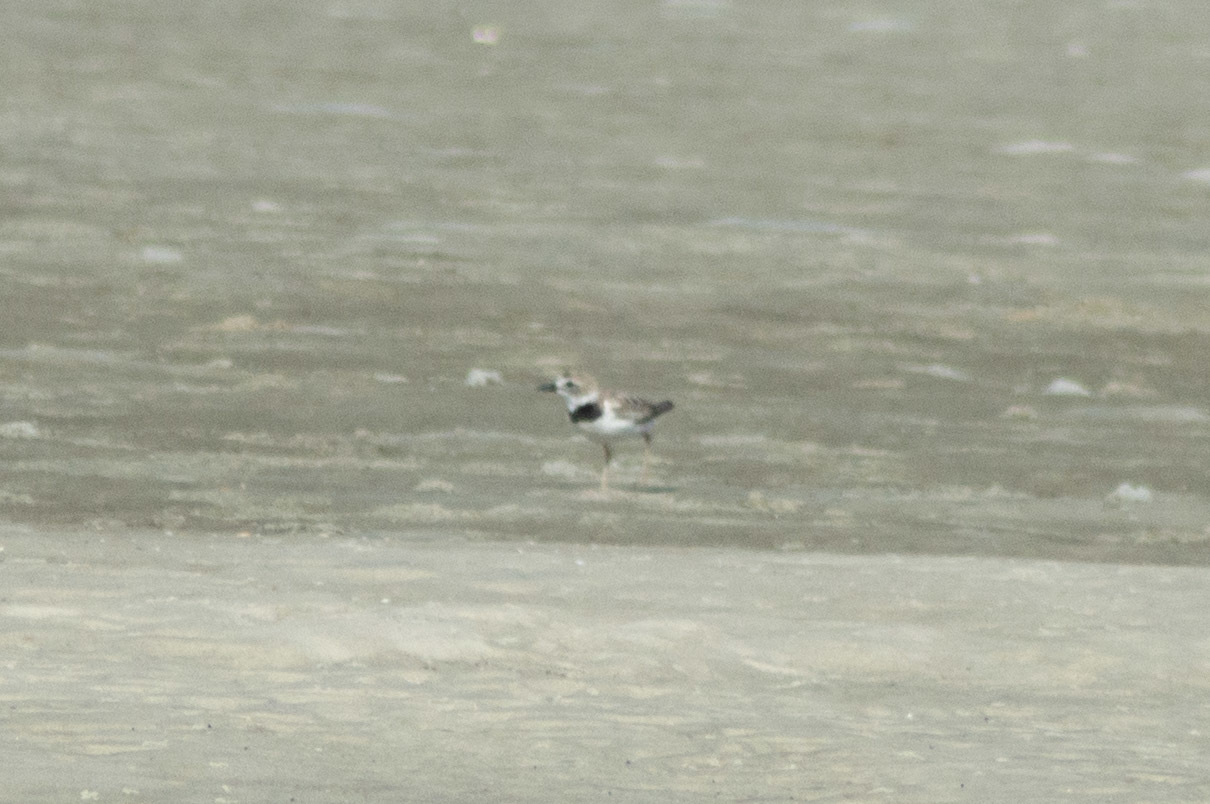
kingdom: Animalia
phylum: Chordata
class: Aves
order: Charadriiformes
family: Charadriidae
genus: Anarhynchus
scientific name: Anarhynchus
